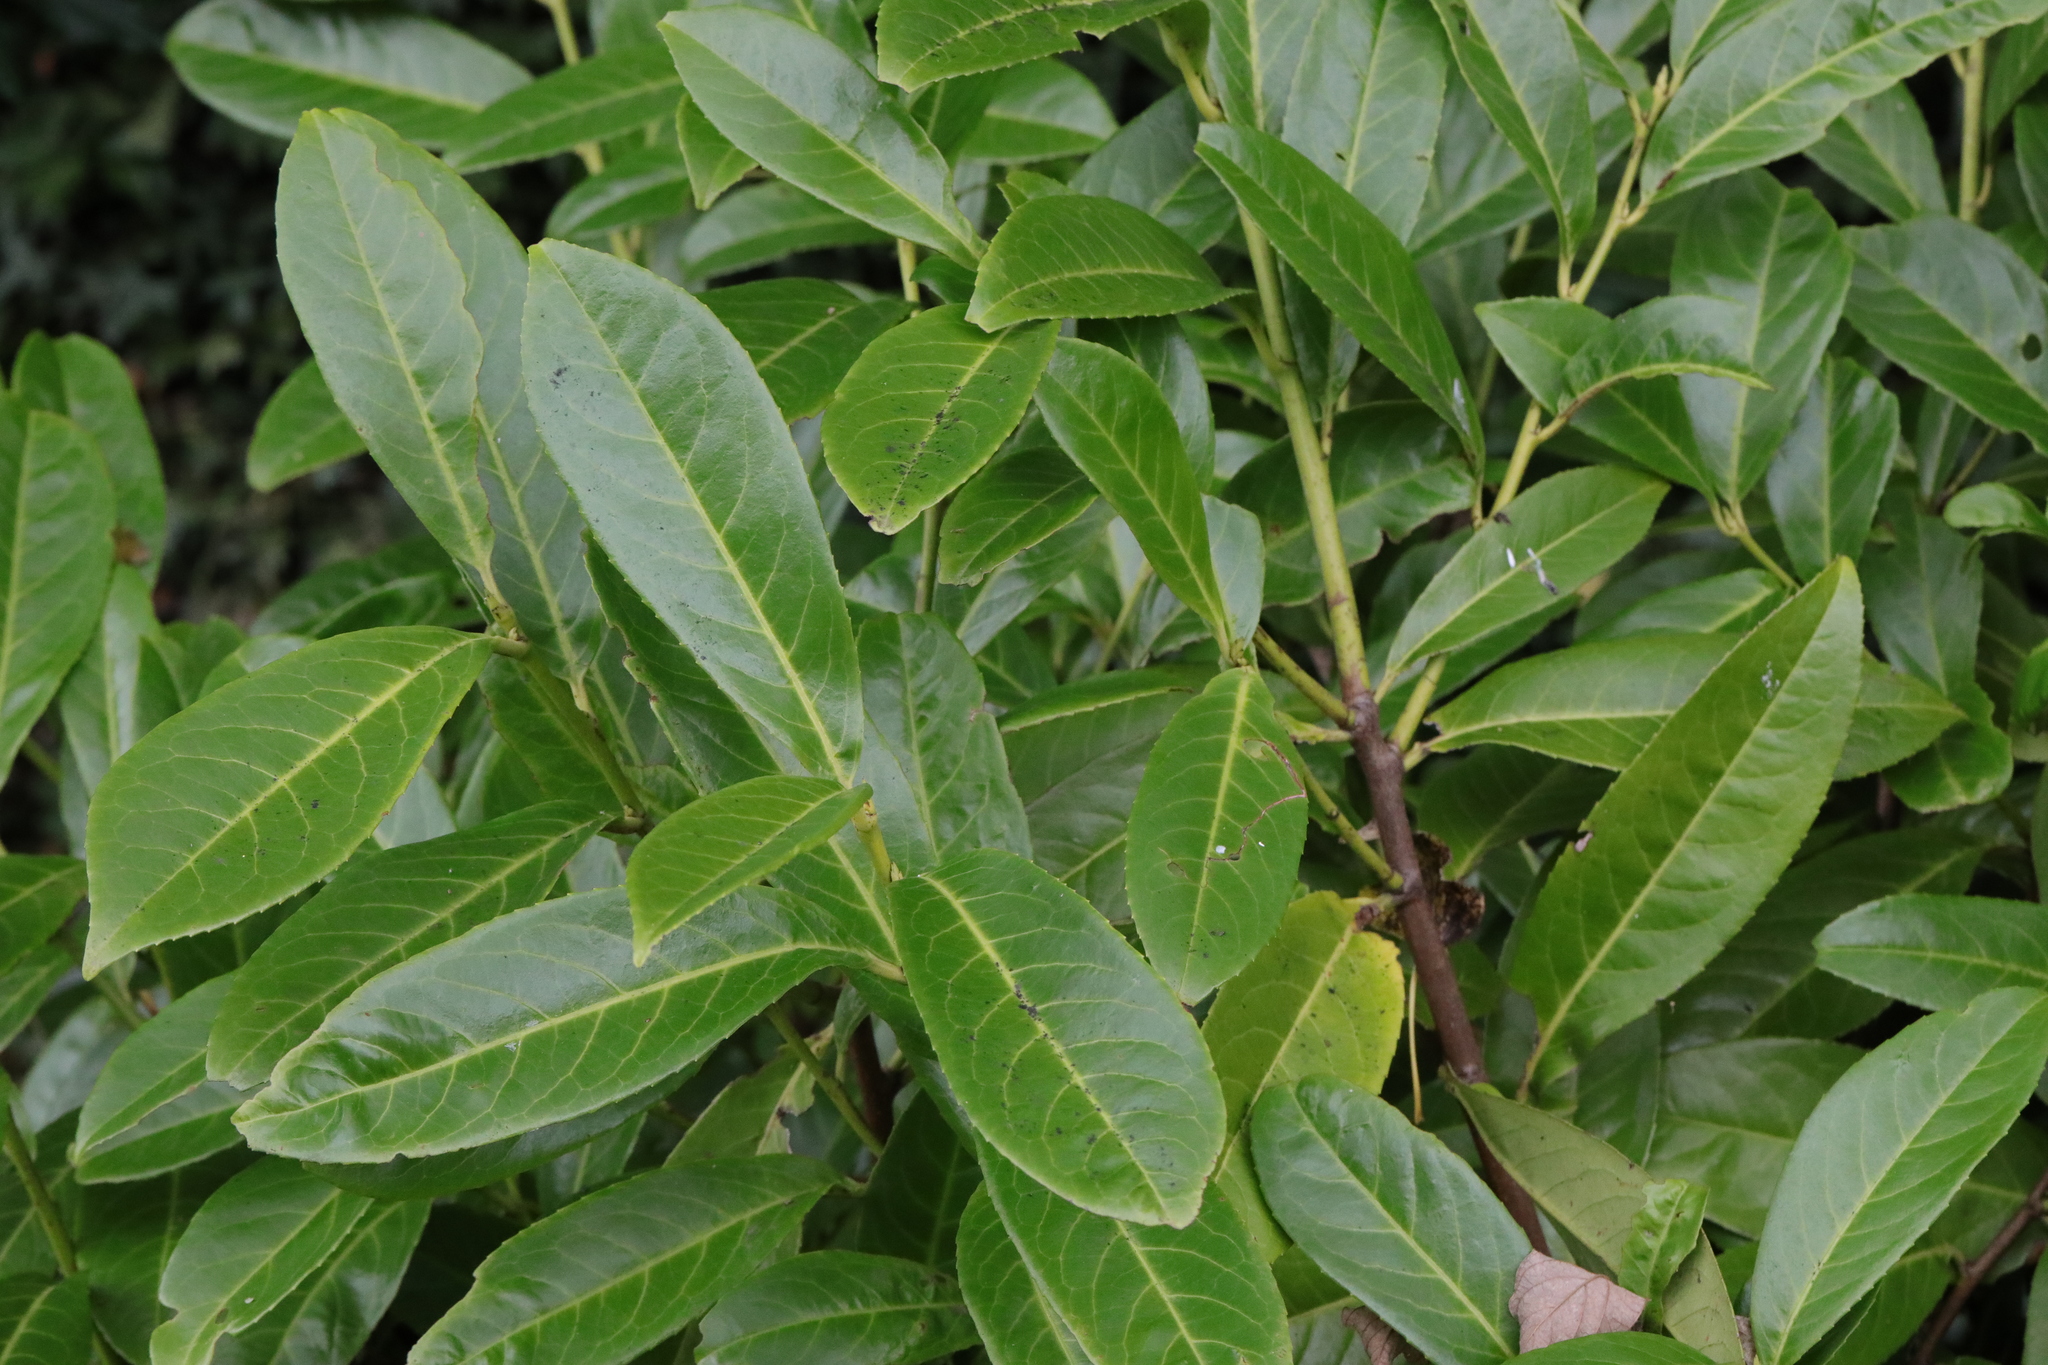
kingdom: Plantae
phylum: Tracheophyta
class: Magnoliopsida
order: Rosales
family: Rosaceae
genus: Prunus
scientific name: Prunus laurocerasus
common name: Cherry laurel
